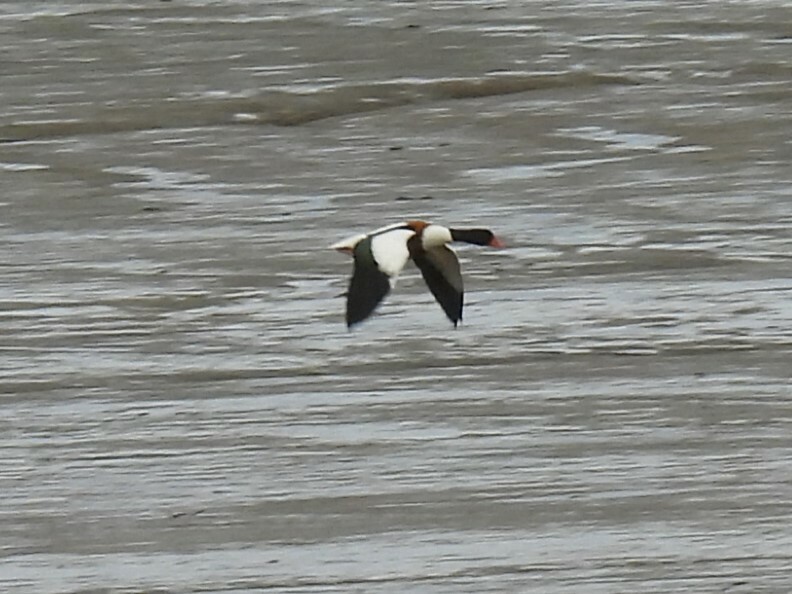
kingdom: Animalia
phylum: Chordata
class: Aves
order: Anseriformes
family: Anatidae
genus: Tadorna
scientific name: Tadorna tadorna
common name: Common shelduck
